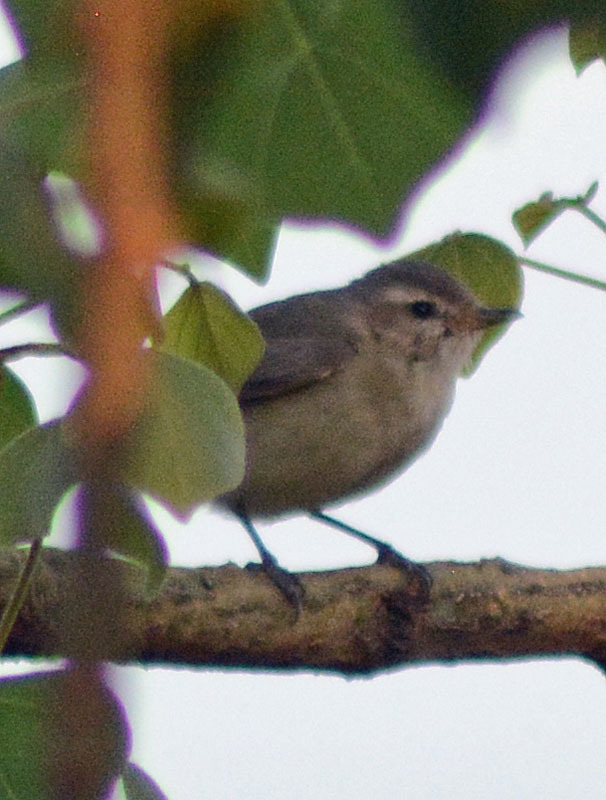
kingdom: Animalia
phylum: Chordata
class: Aves
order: Passeriformes
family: Vireonidae
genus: Vireo
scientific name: Vireo gilvus
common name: Warbling vireo
